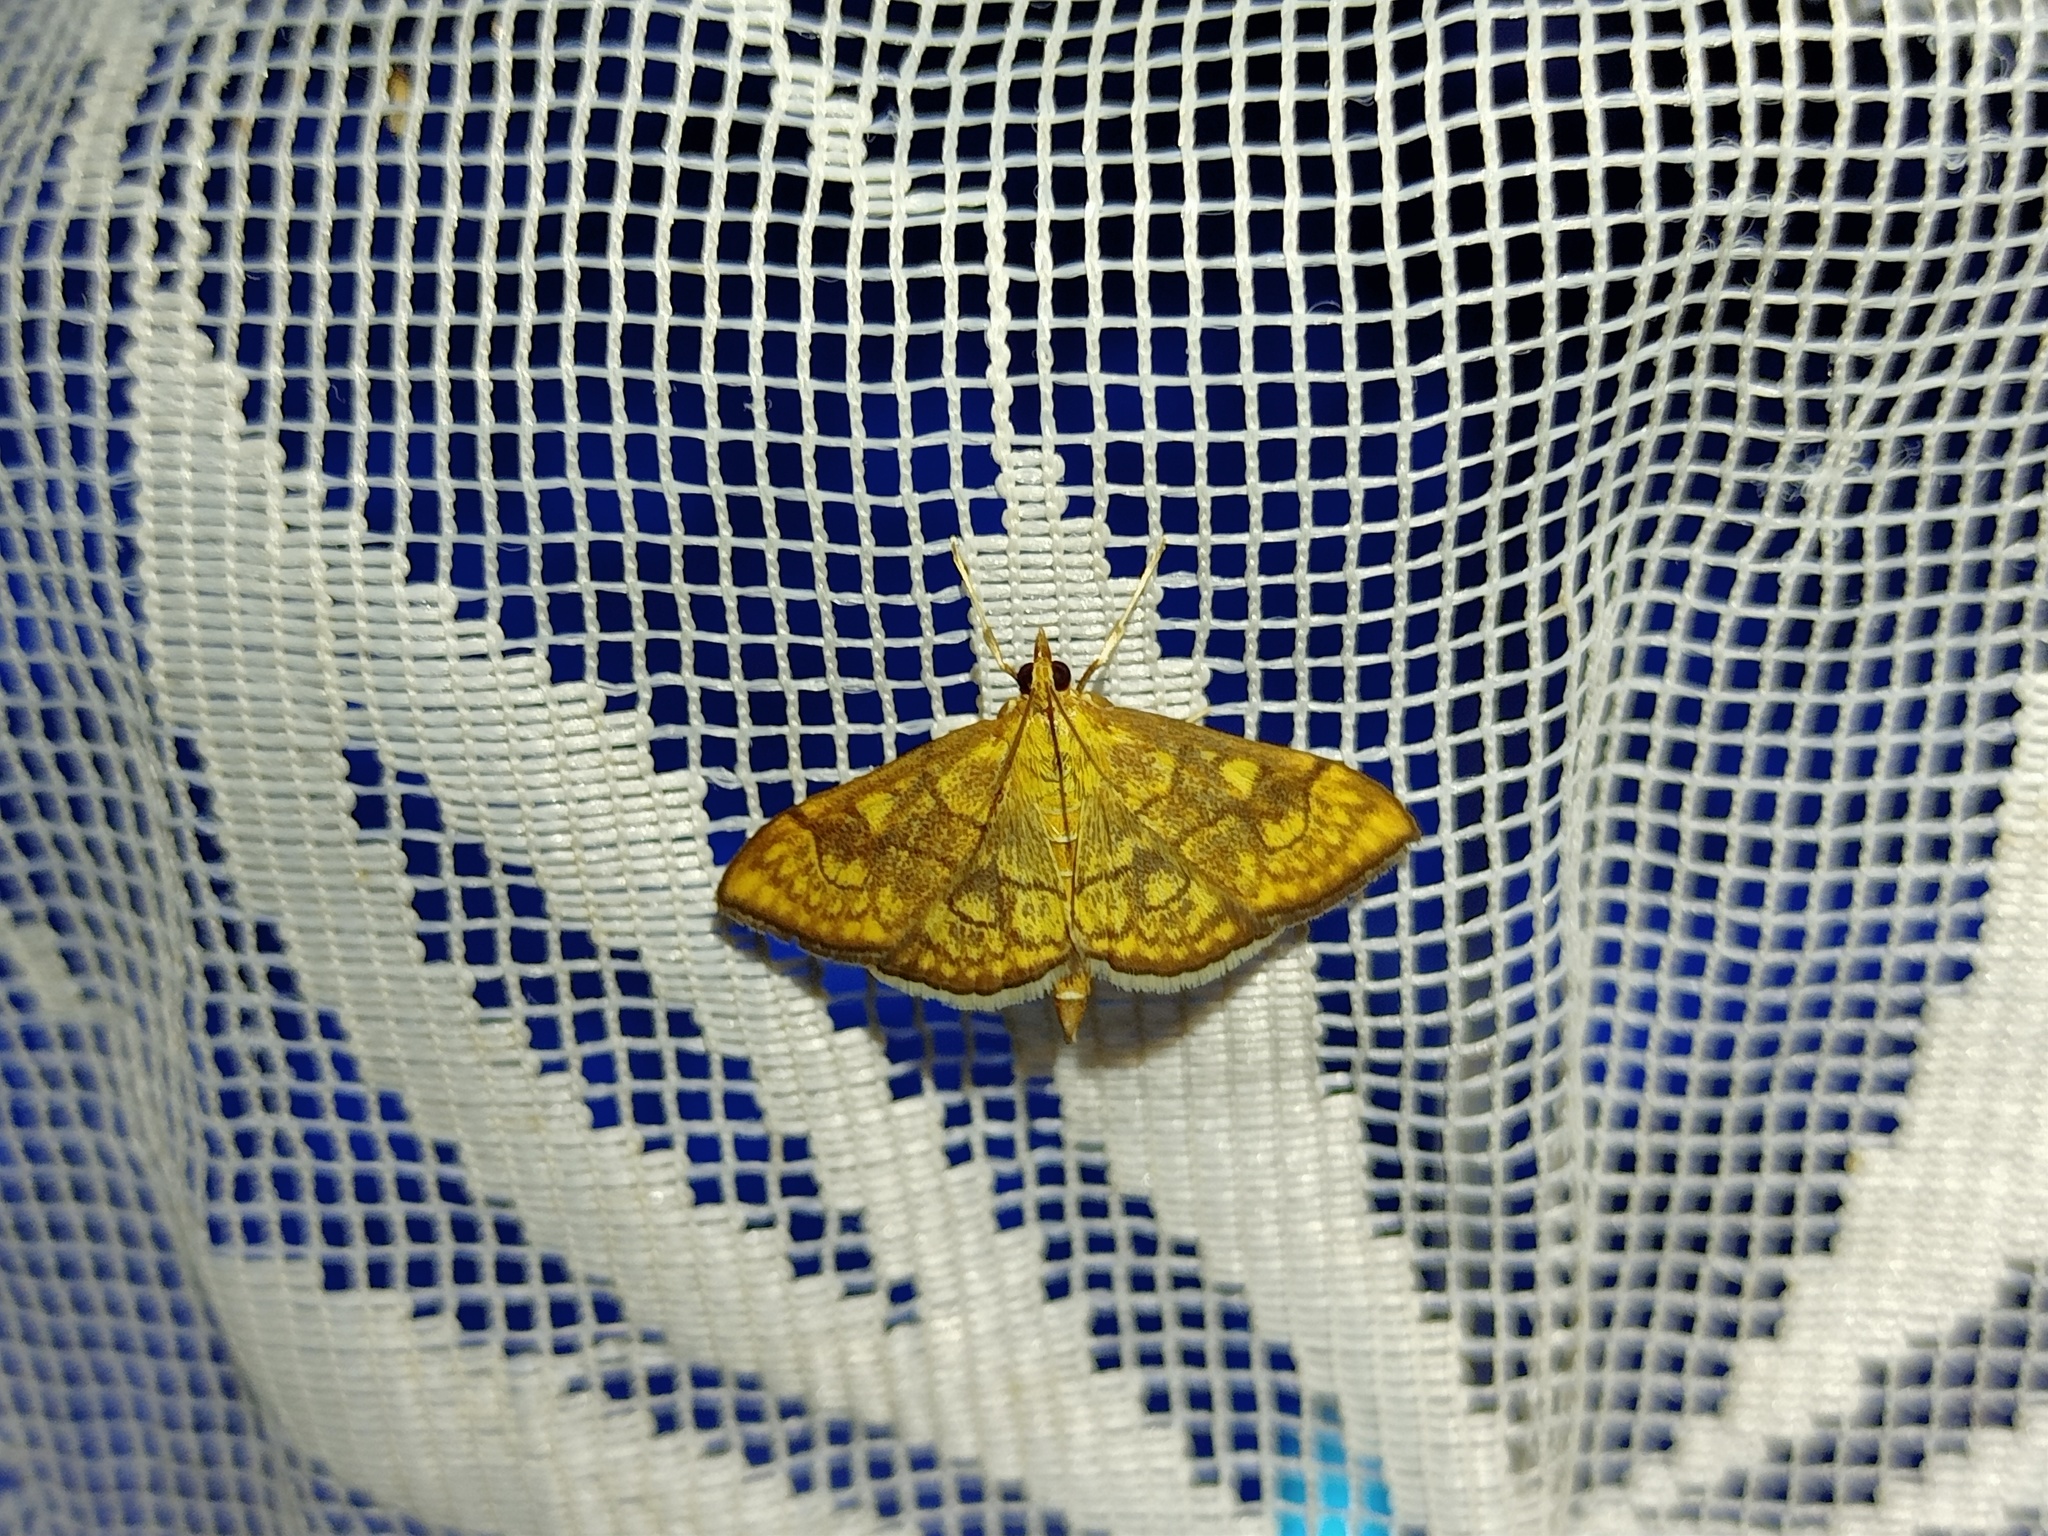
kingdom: Animalia
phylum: Arthropoda
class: Insecta
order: Lepidoptera
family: Crambidae
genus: Anania
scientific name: Anania verbascalis
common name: Golden pearl
